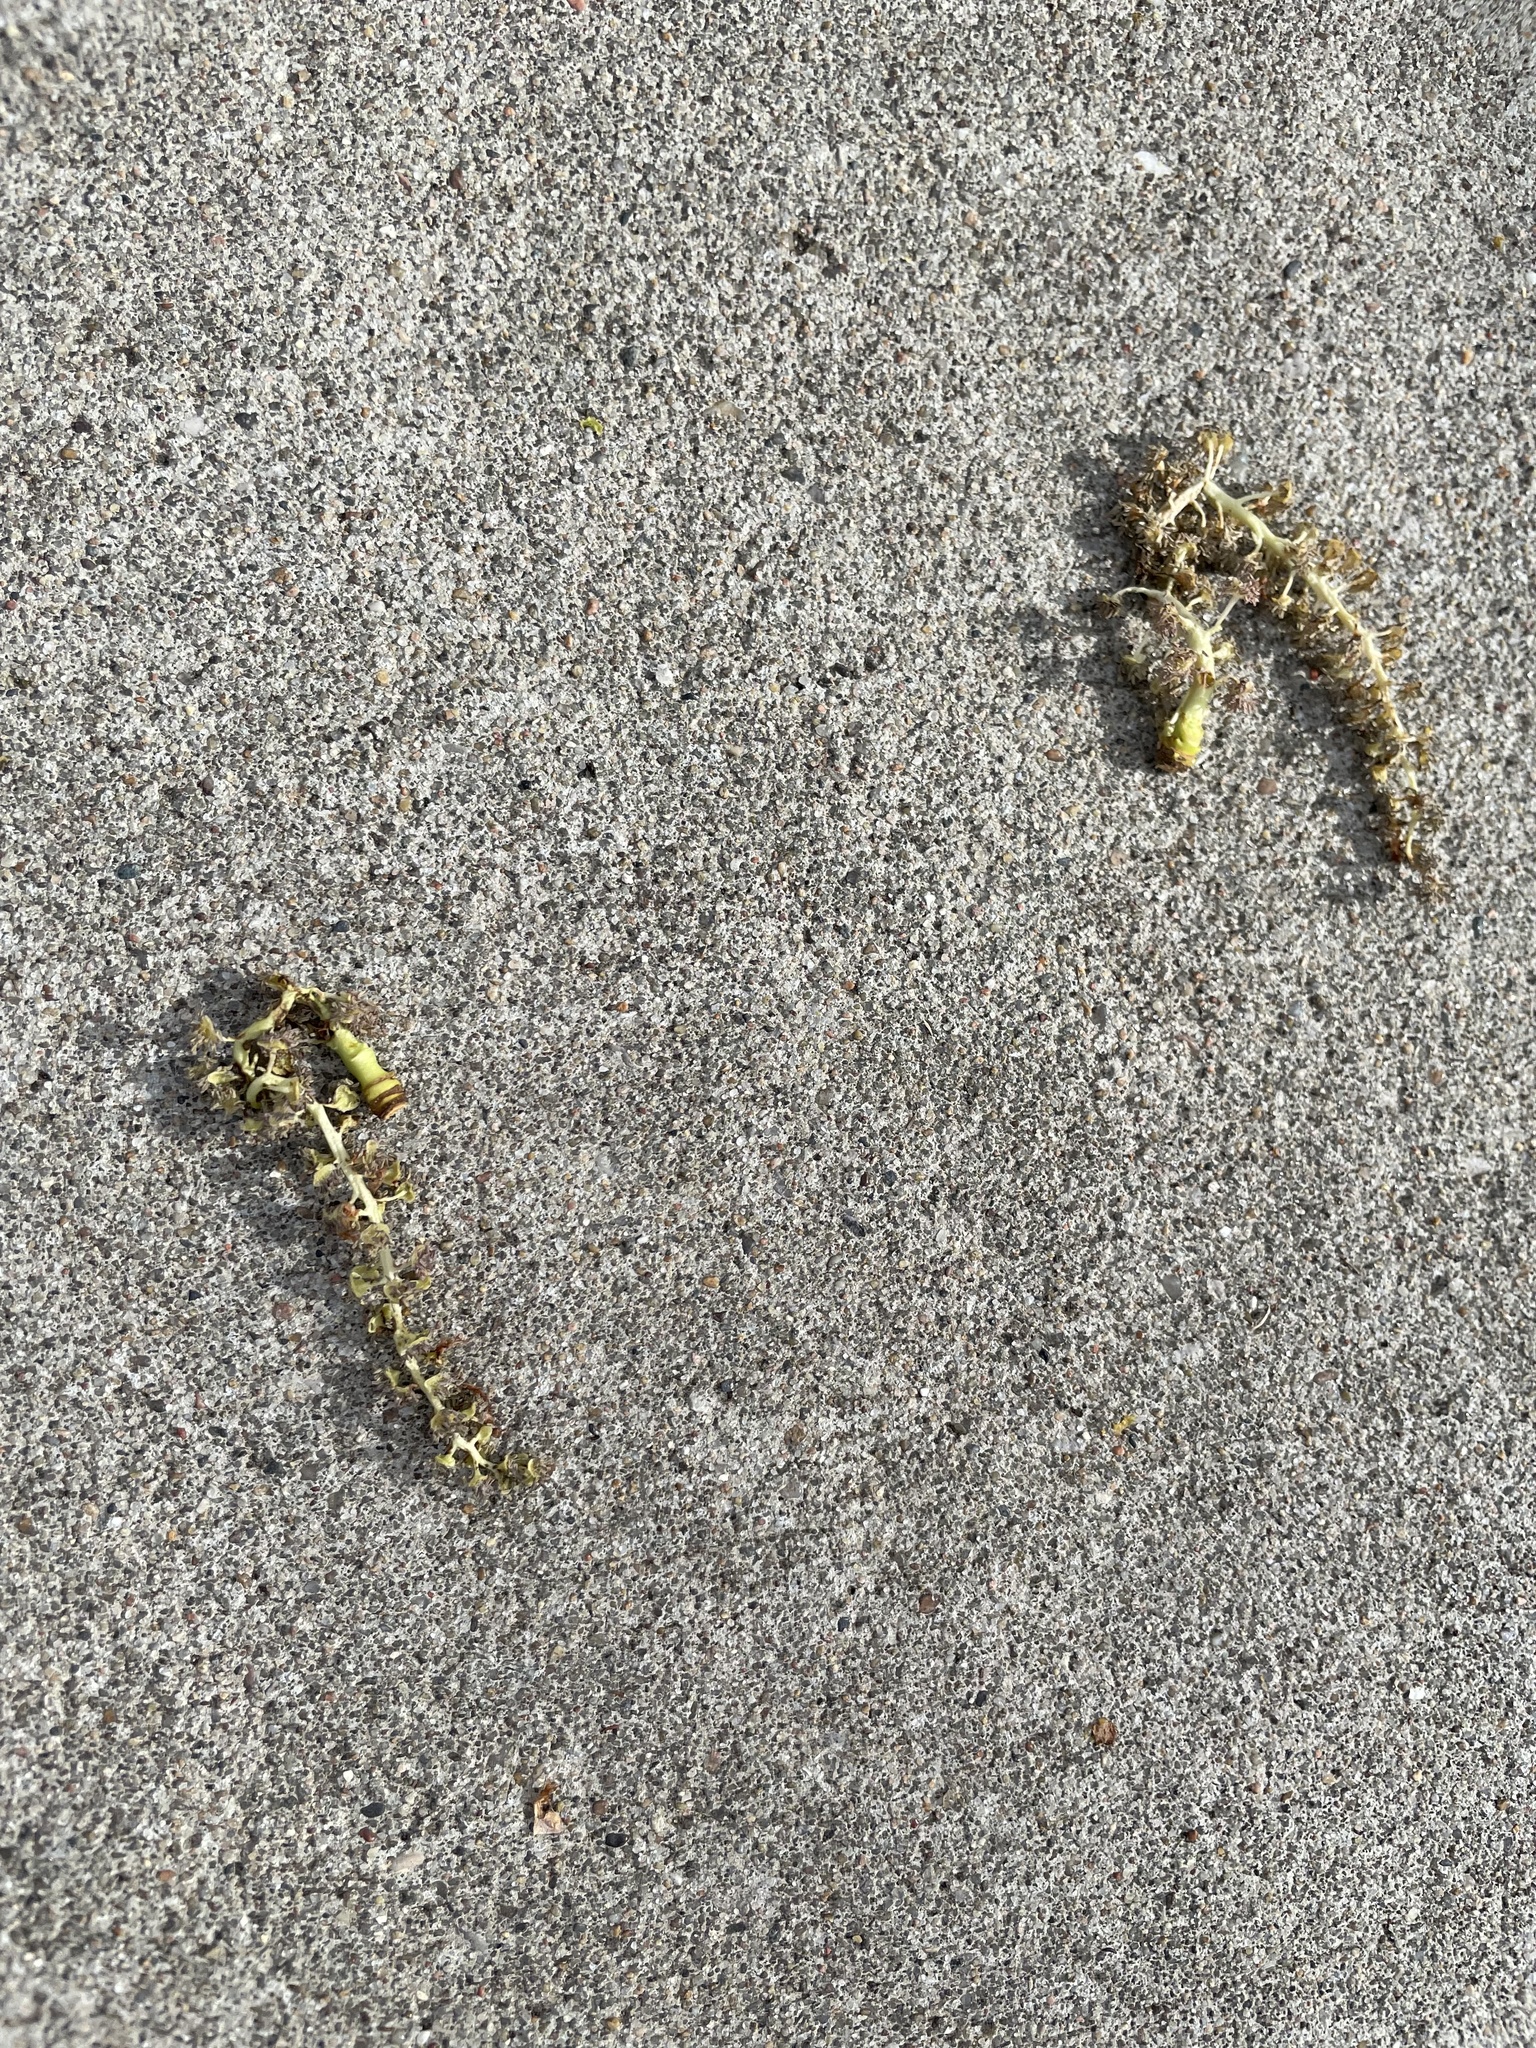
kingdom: Plantae
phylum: Tracheophyta
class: Magnoliopsida
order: Malpighiales
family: Salicaceae
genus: Populus
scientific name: Populus deltoides
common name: Eastern cottonwood
